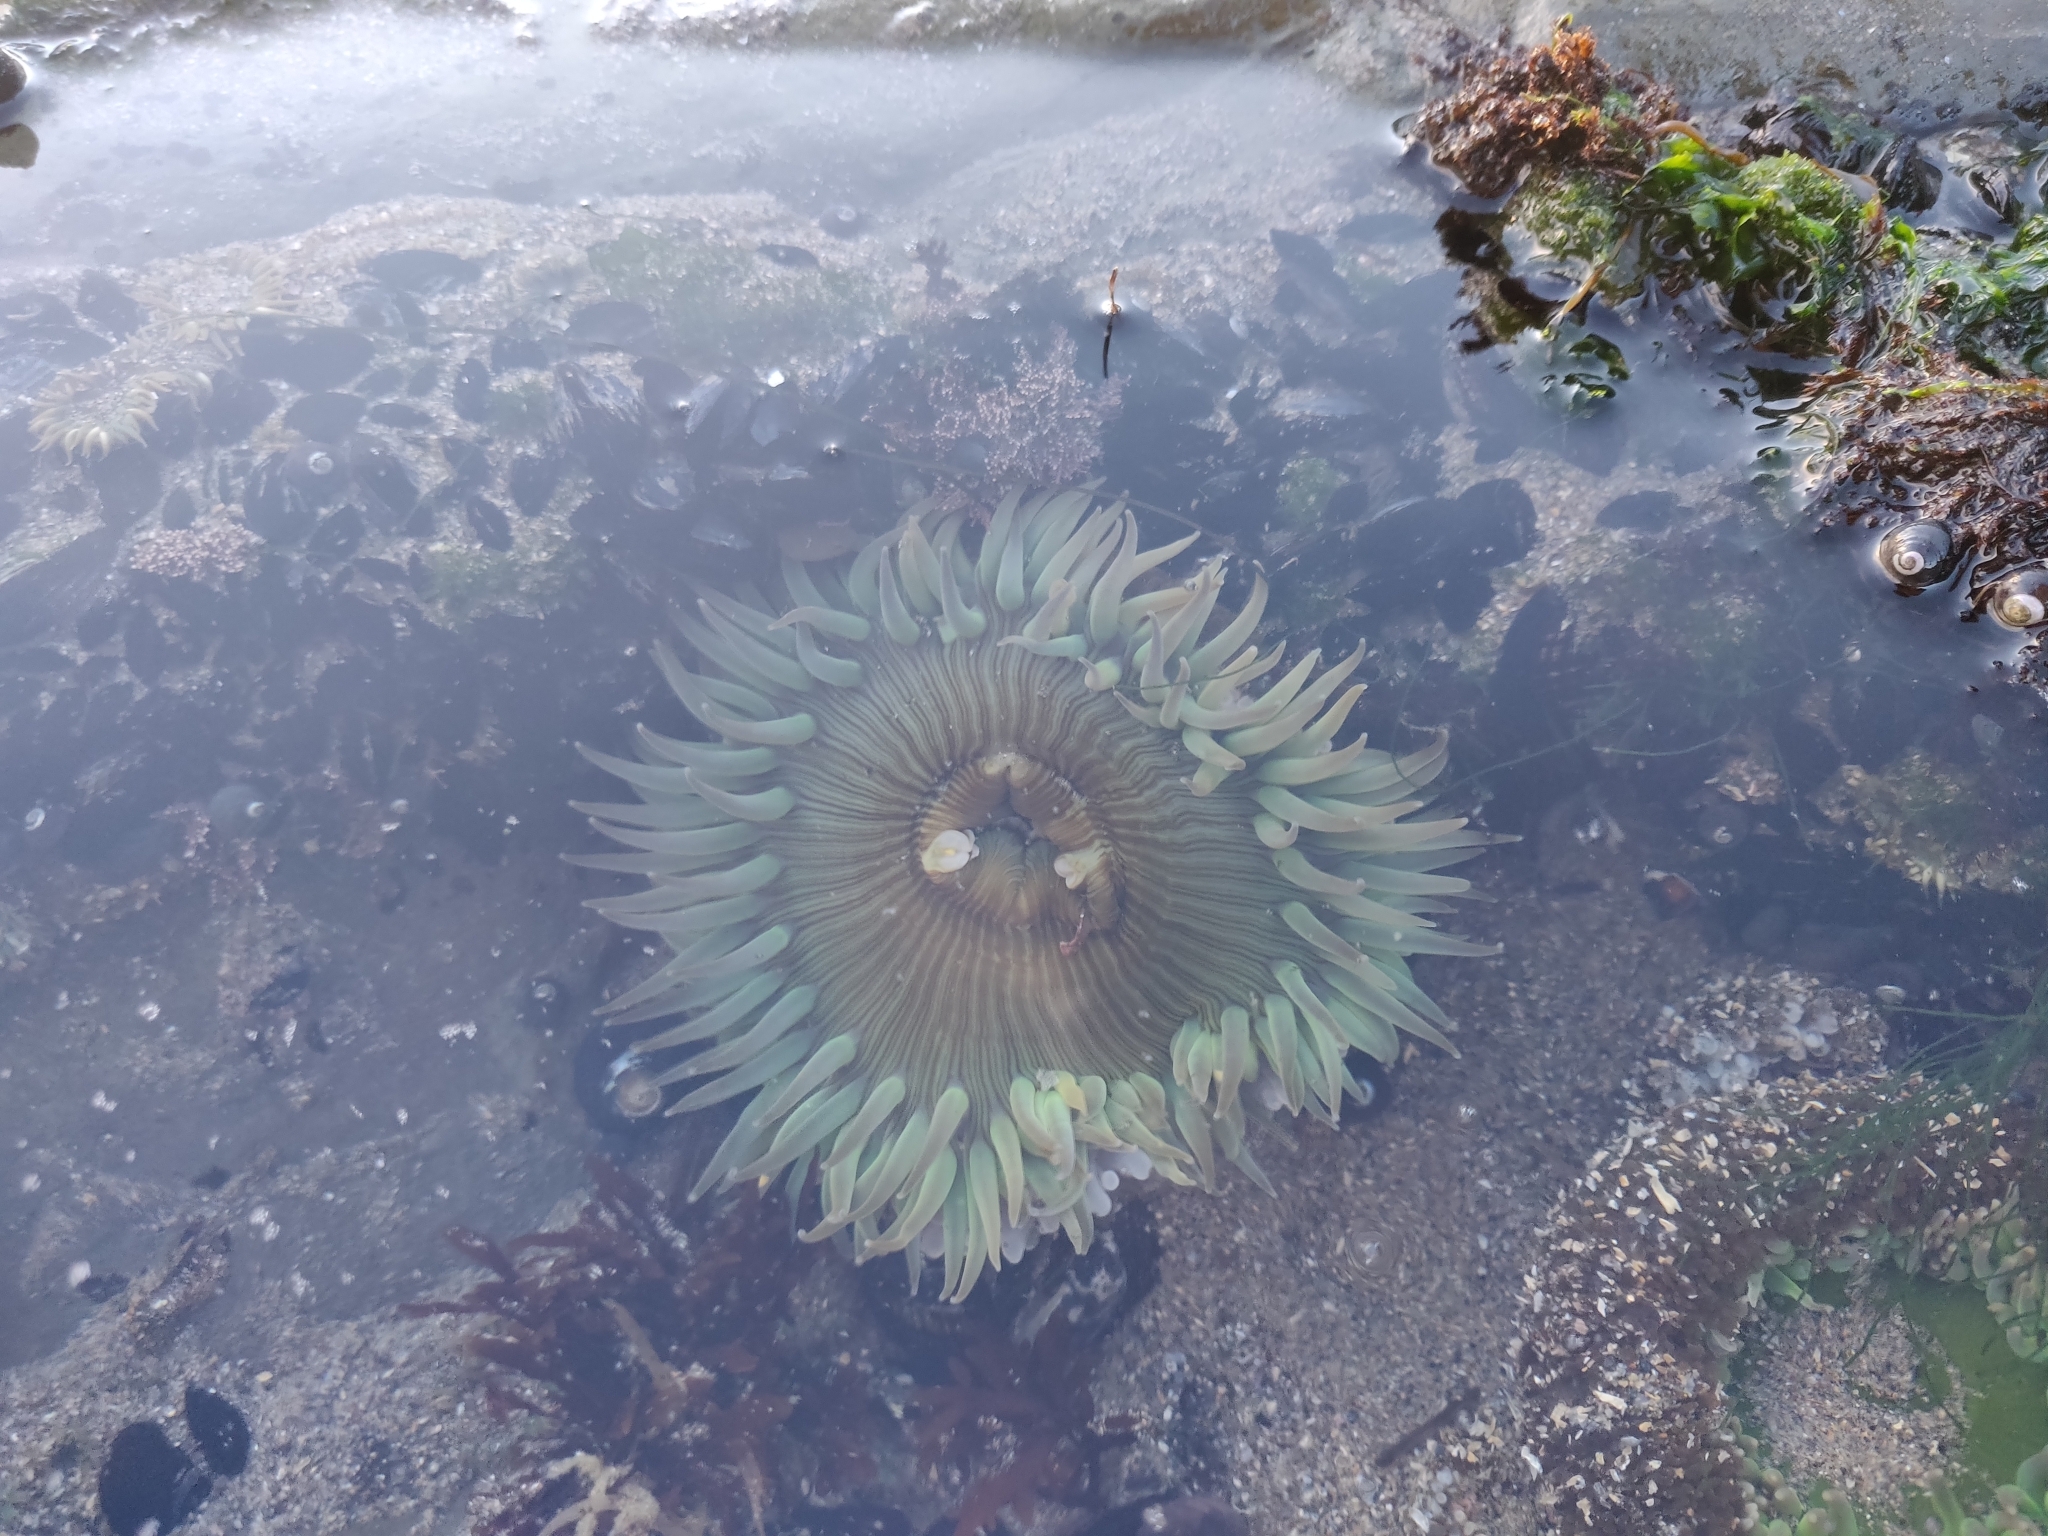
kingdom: Animalia
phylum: Cnidaria
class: Anthozoa
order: Actiniaria
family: Actiniidae
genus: Anthopleura
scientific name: Anthopleura sola
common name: Sun anemone
